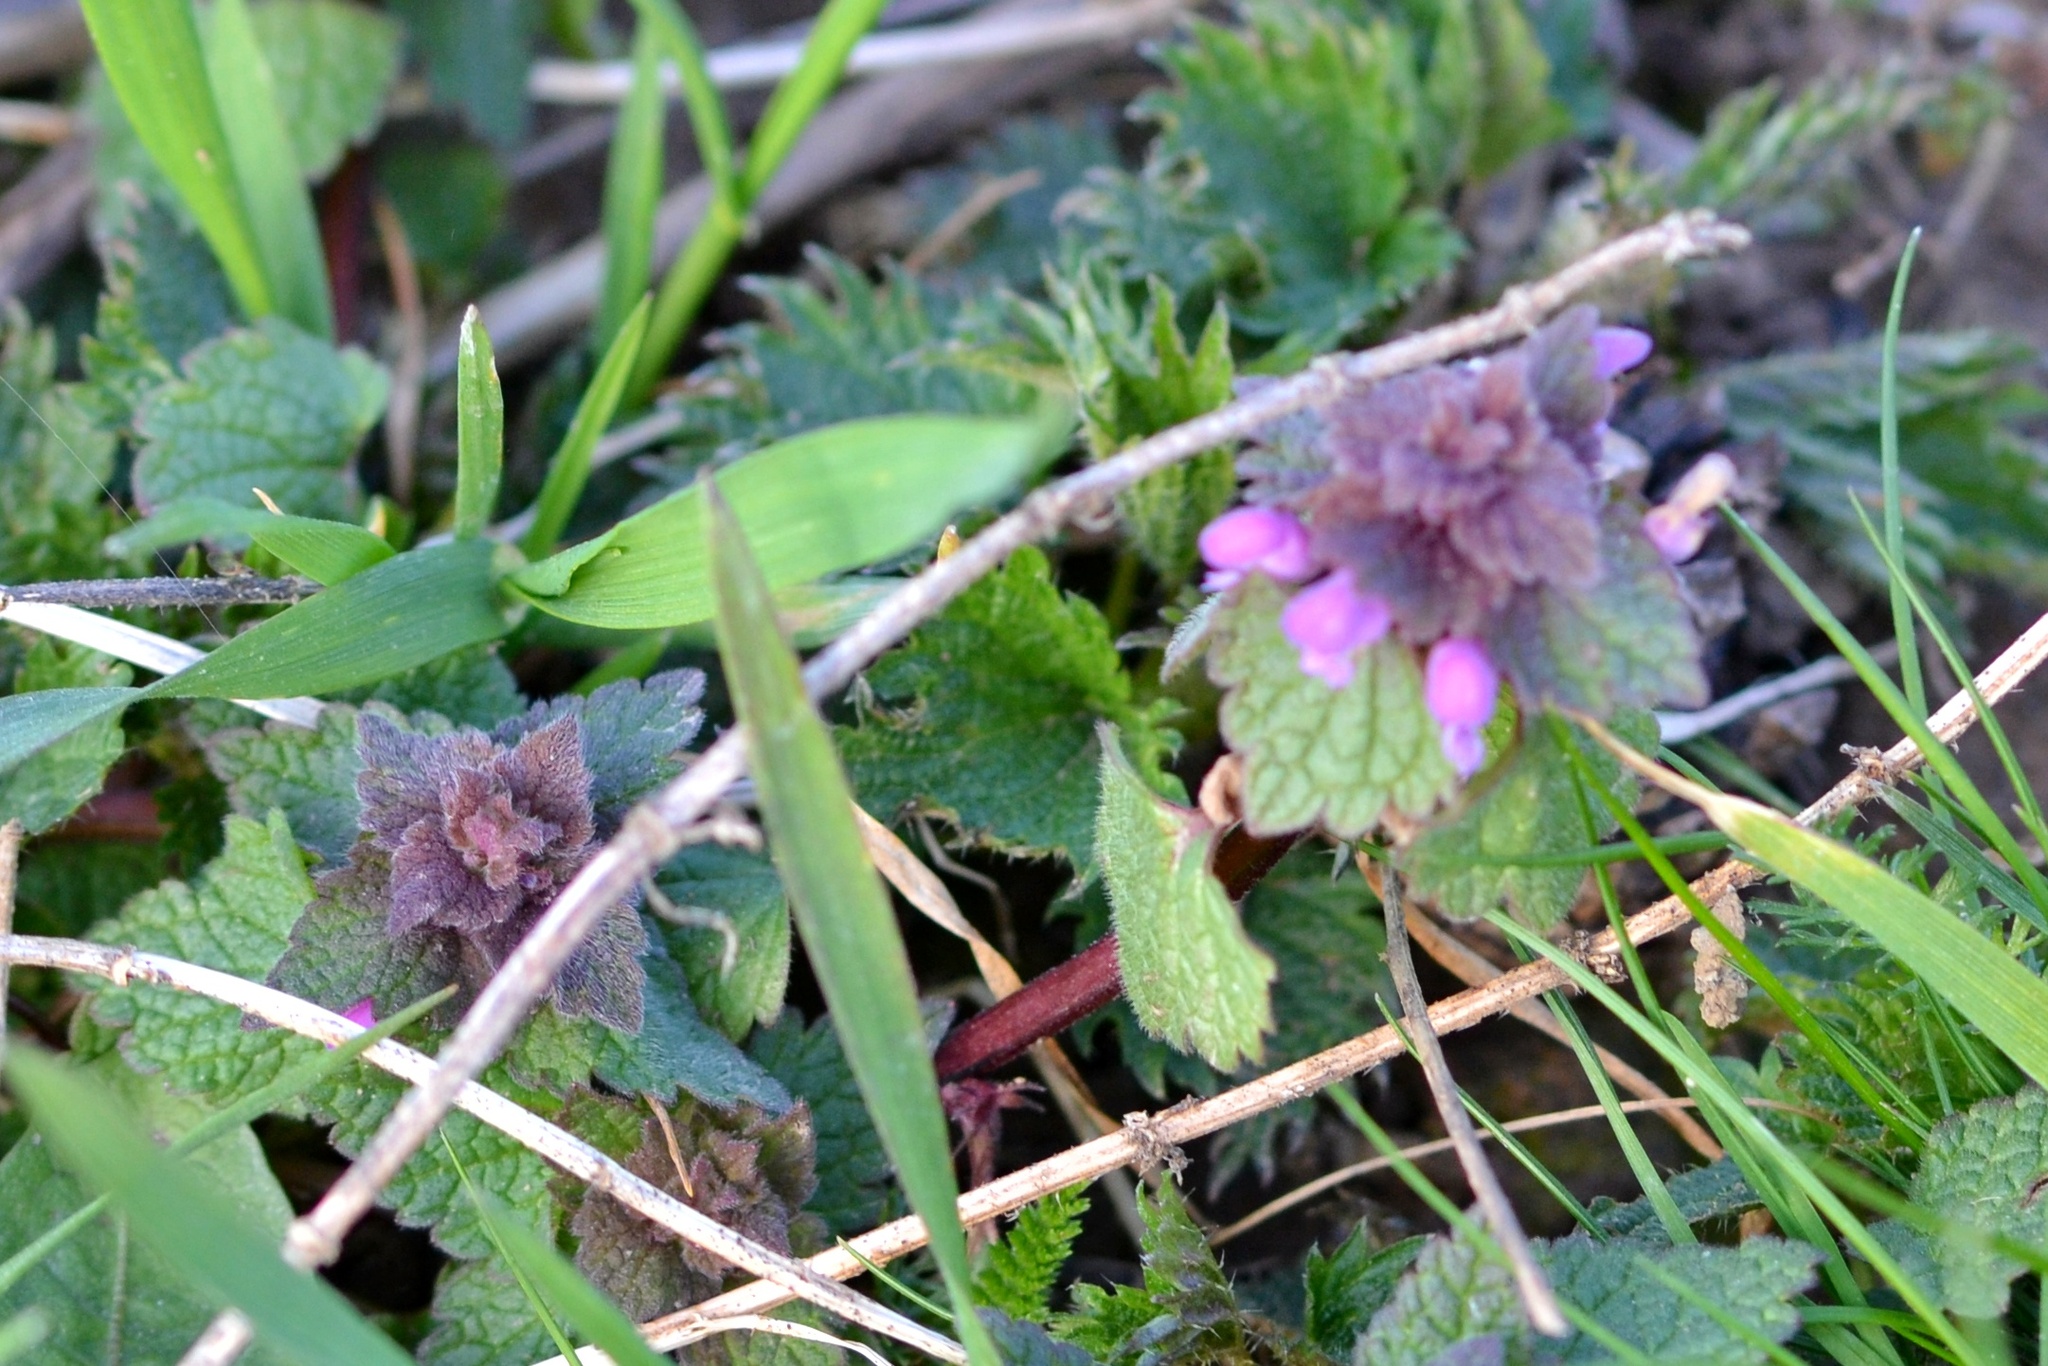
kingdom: Plantae
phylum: Tracheophyta
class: Magnoliopsida
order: Lamiales
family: Lamiaceae
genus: Lamium
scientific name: Lamium purpureum
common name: Red dead-nettle
